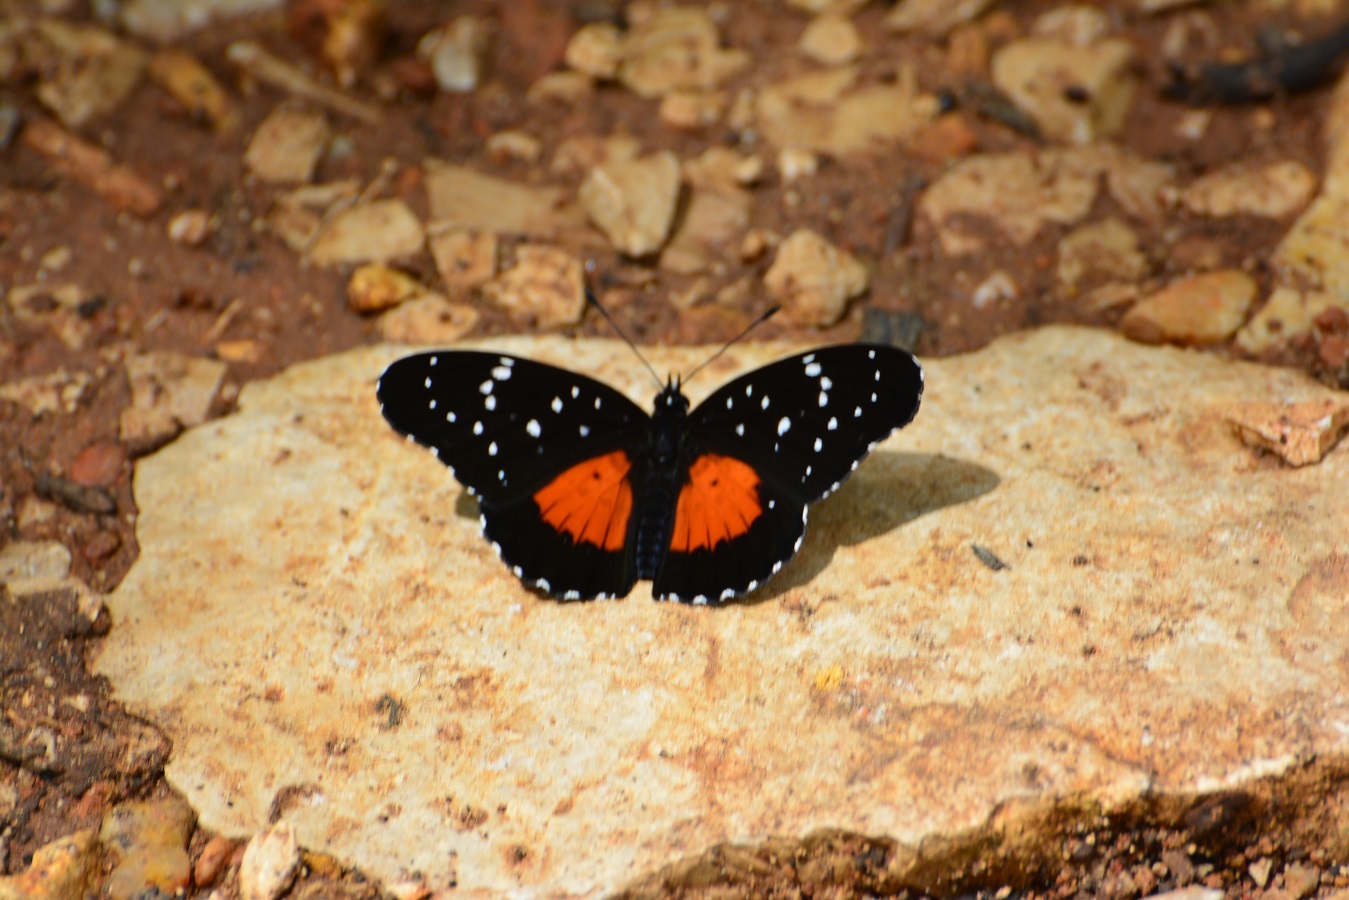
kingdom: Animalia
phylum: Arthropoda
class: Insecta
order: Lepidoptera
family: Nymphalidae
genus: Chlosyne
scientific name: Chlosyne janais
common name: Crimson patch
